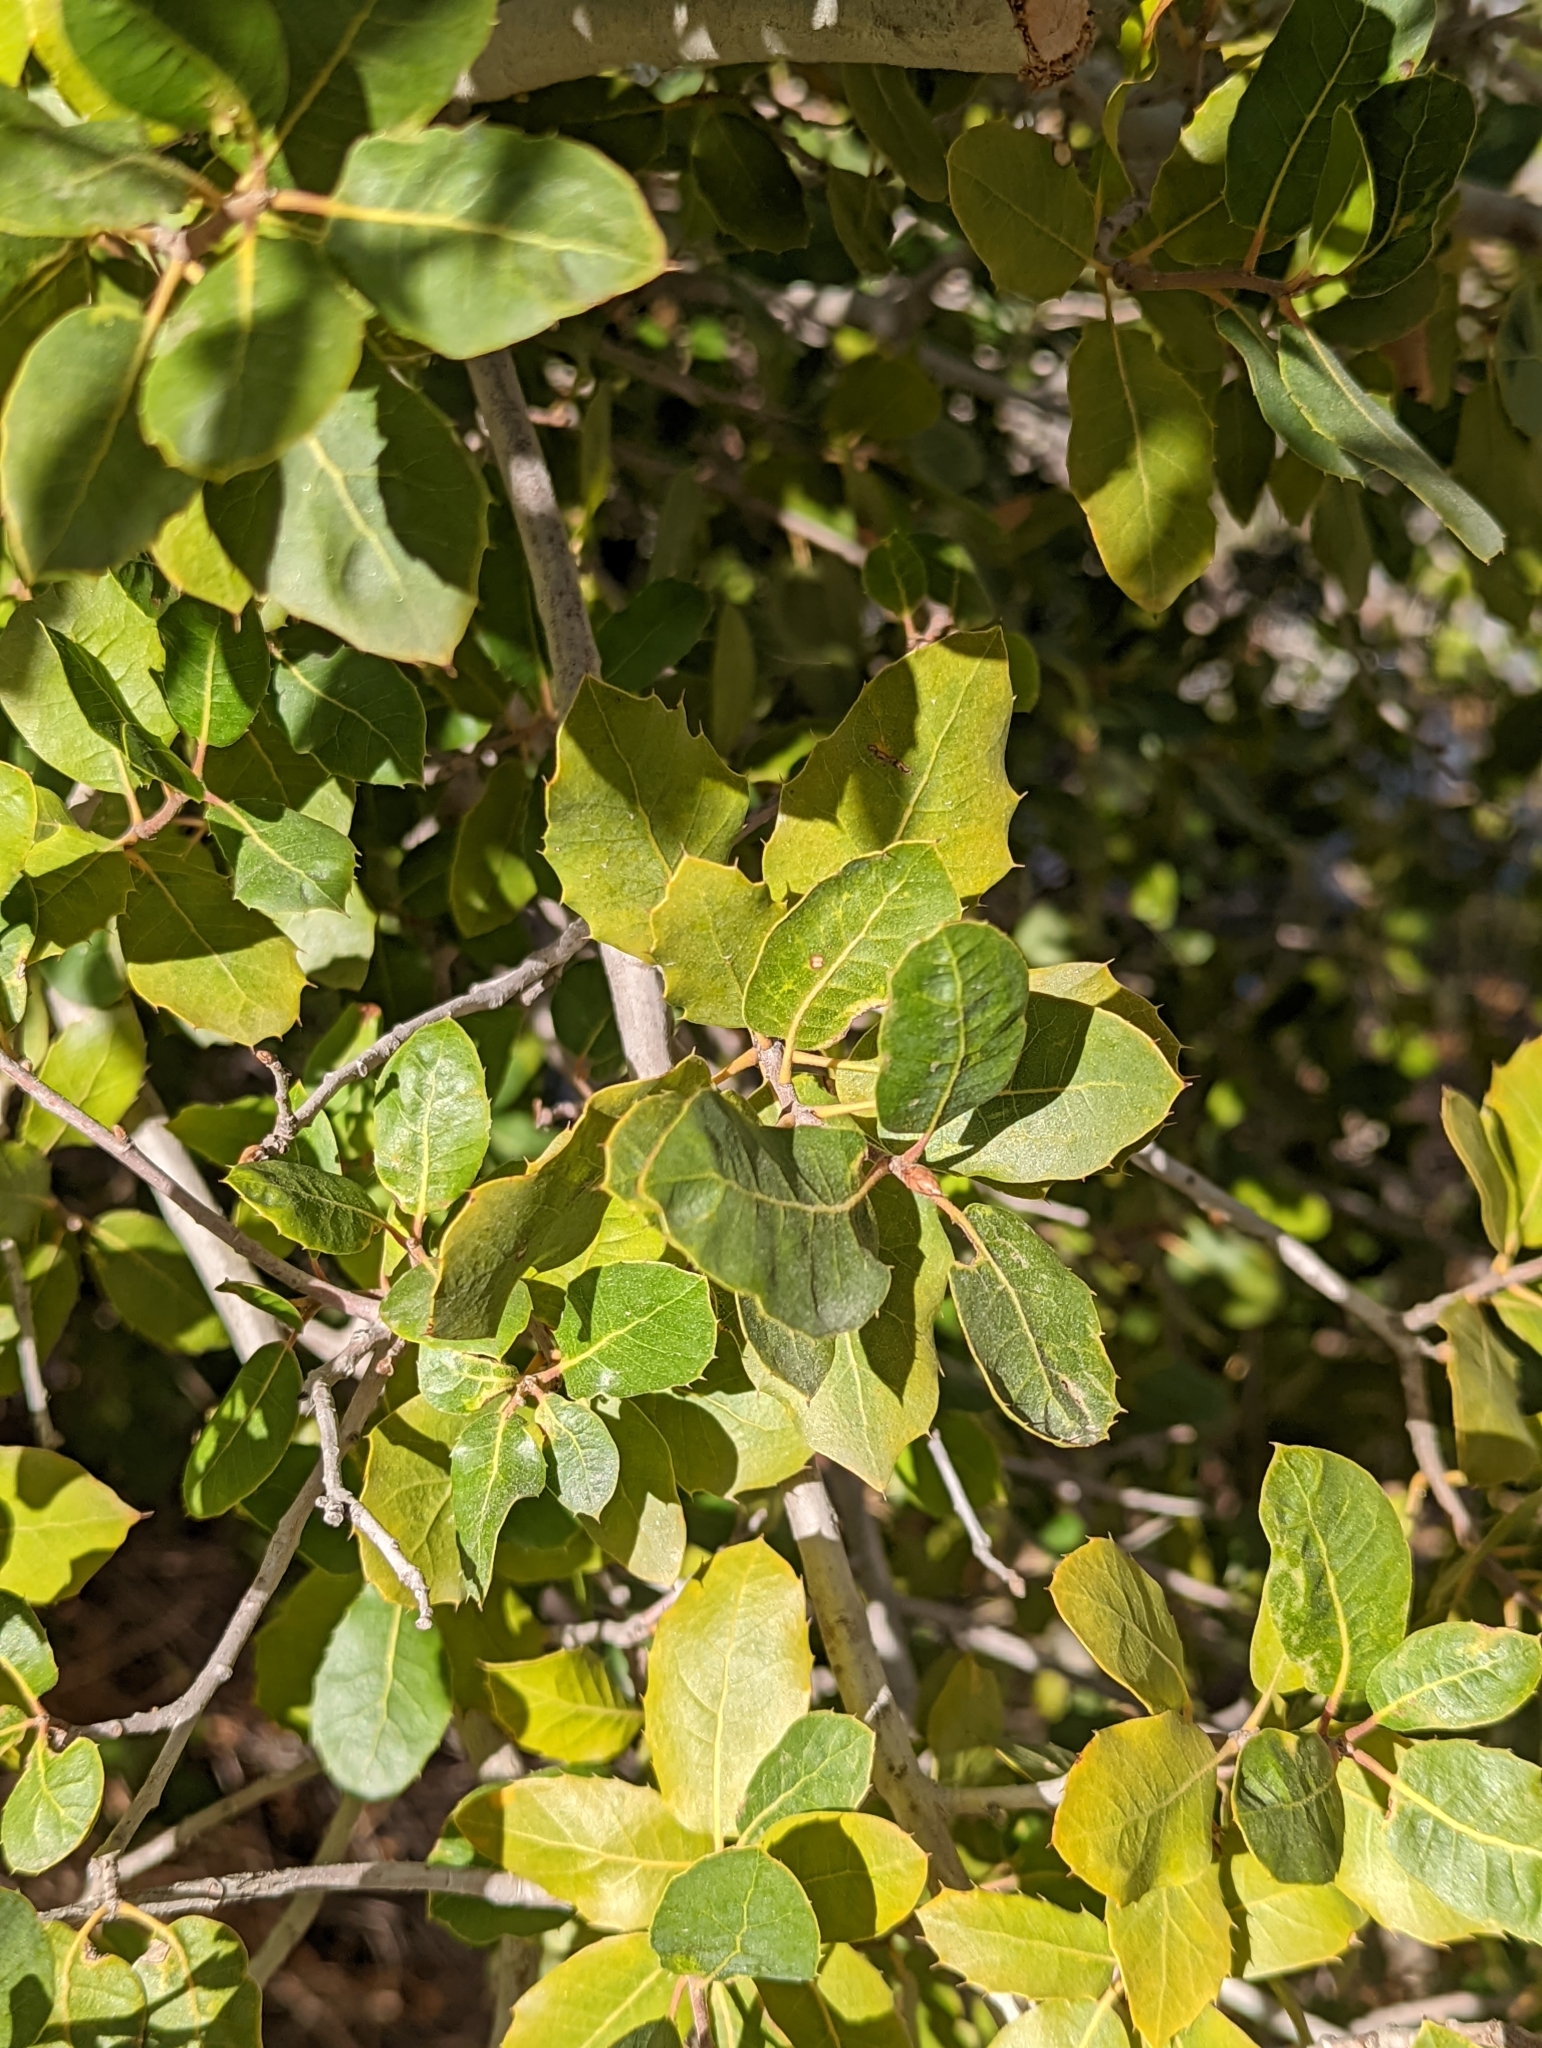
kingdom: Plantae
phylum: Tracheophyta
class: Magnoliopsida
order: Fagales
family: Fagaceae
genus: Quercus
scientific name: Quercus wislizeni
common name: Interior live oak
